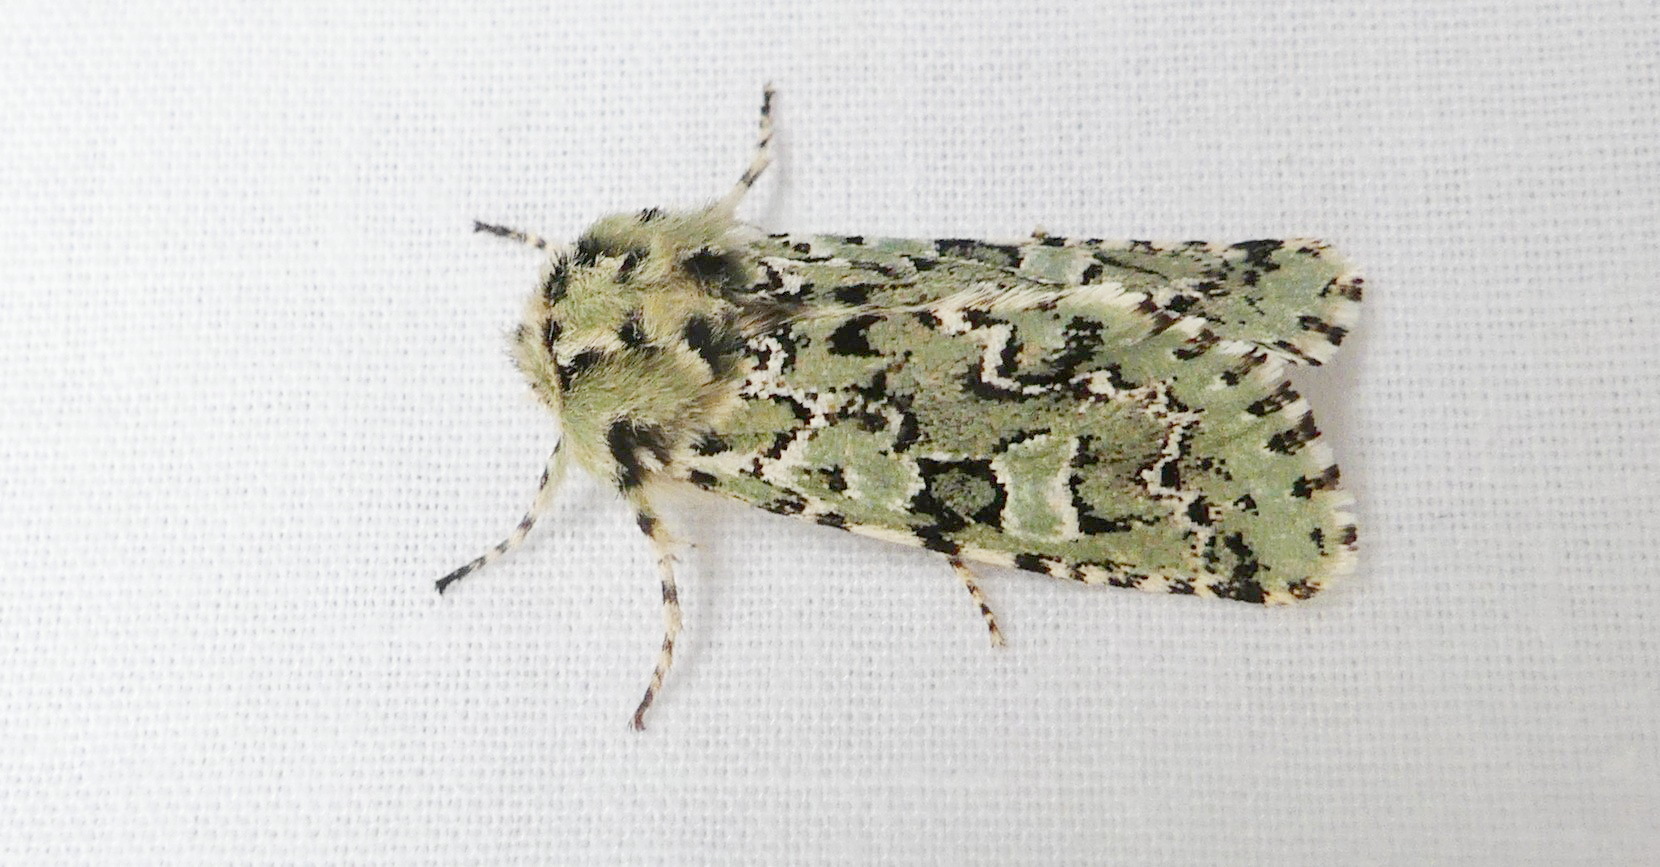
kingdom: Animalia
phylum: Arthropoda
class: Insecta
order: Lepidoptera
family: Noctuidae
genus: Feralia
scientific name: Feralia jocosa
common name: Joker
